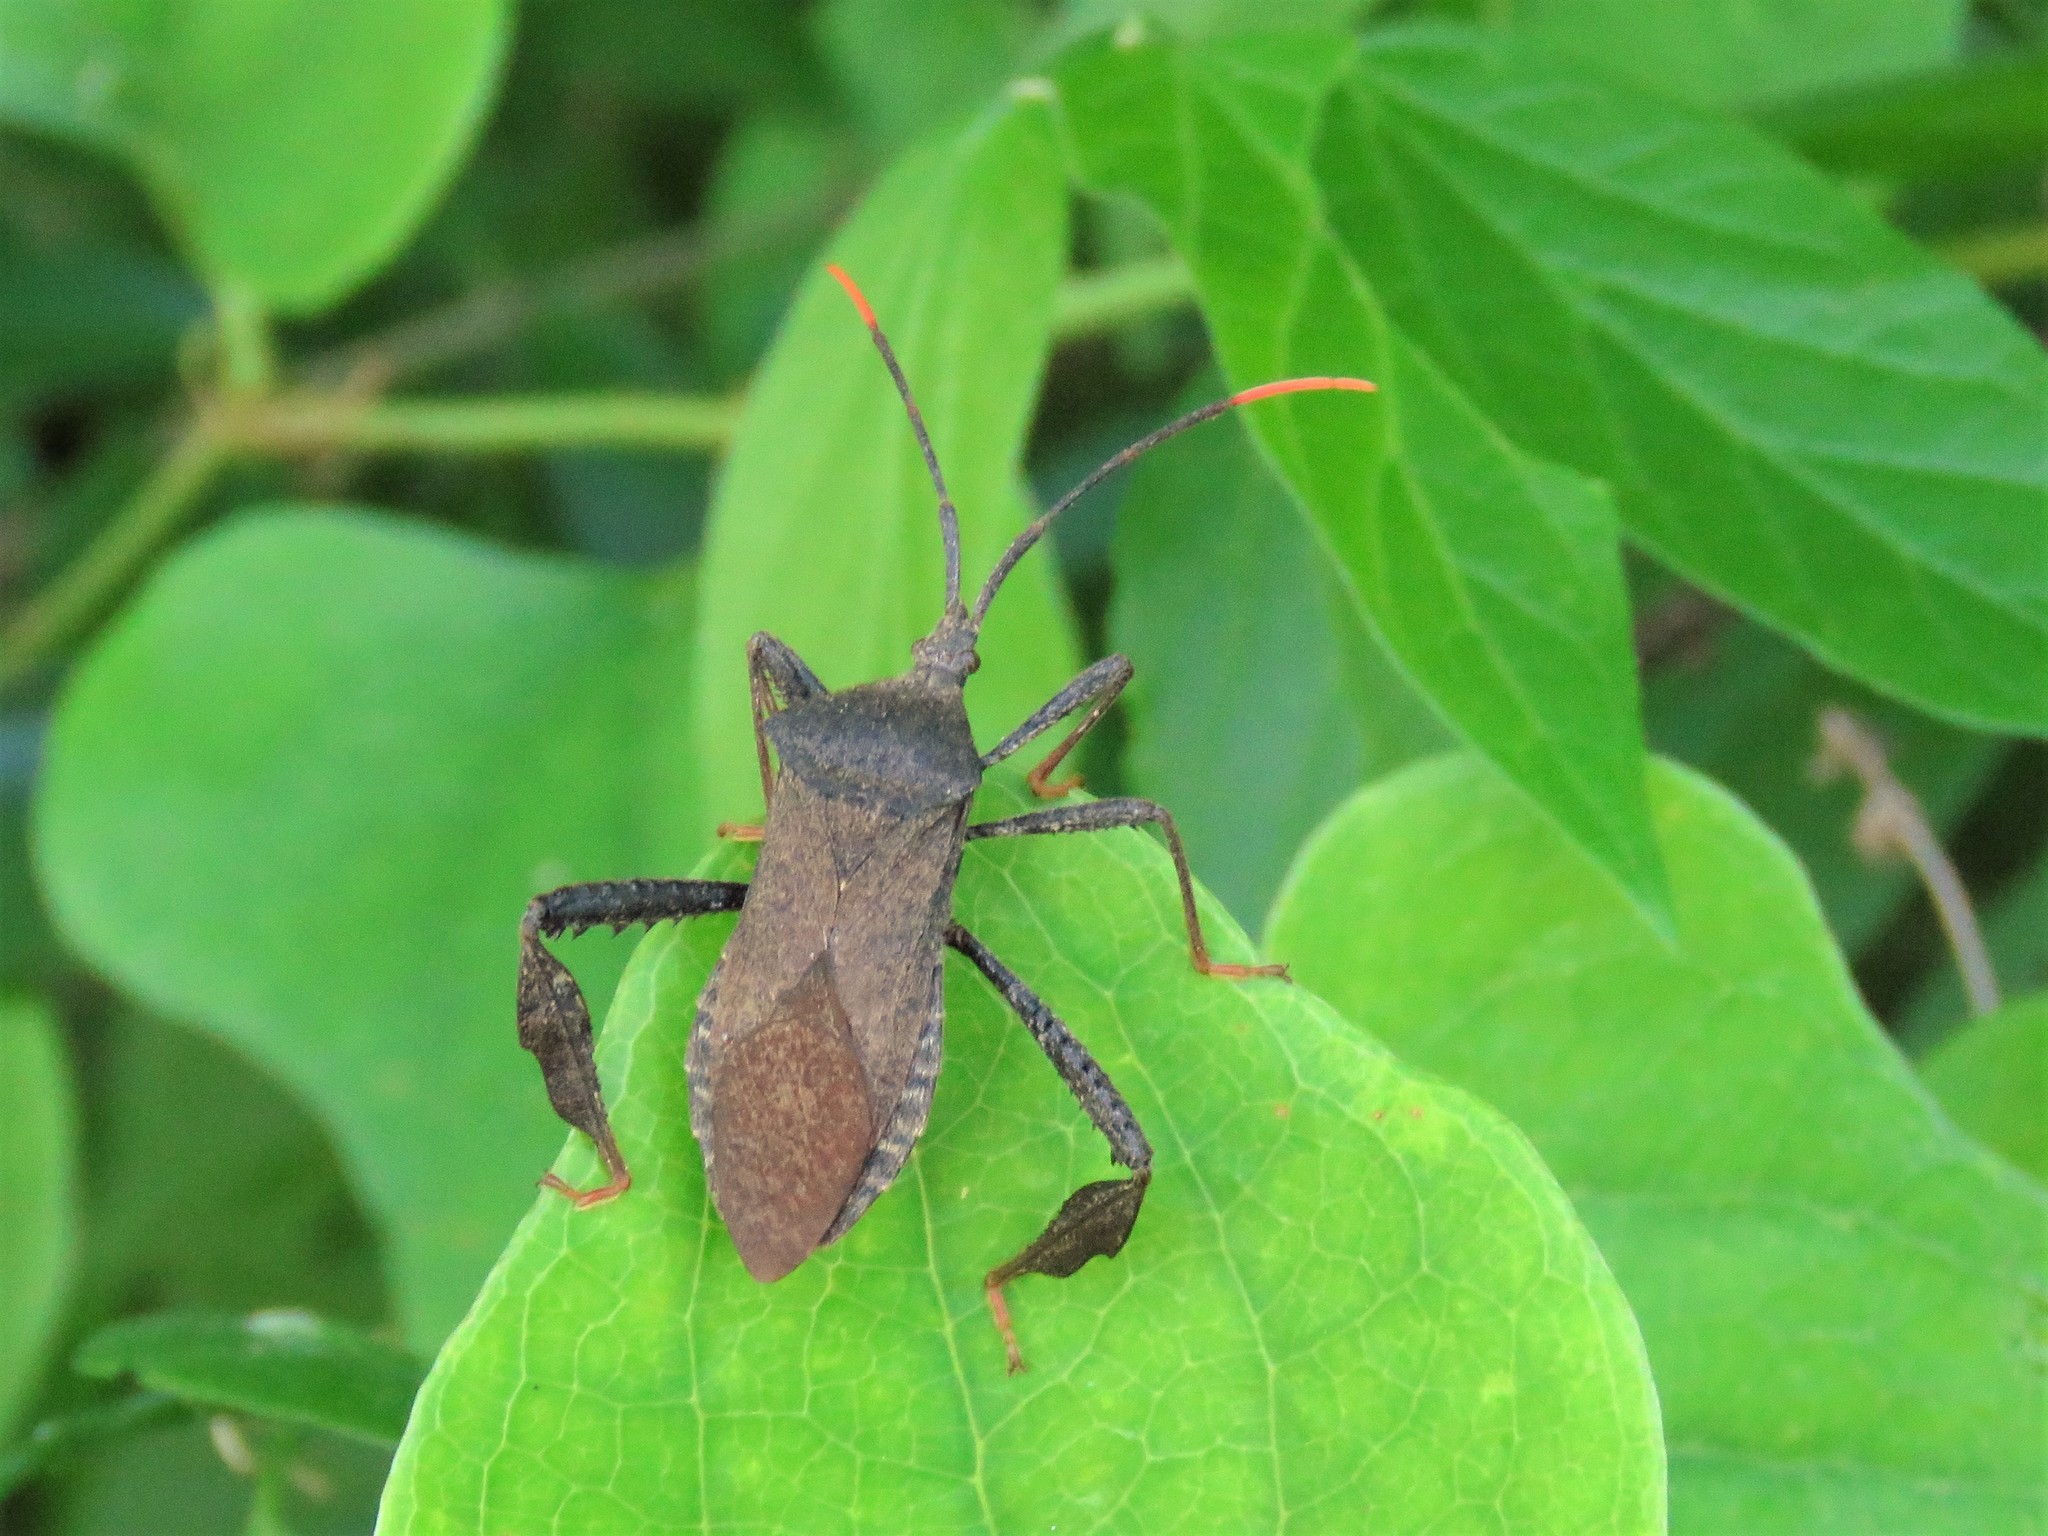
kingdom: Animalia
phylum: Arthropoda
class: Insecta
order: Hemiptera
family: Coreidae
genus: Acanthocephala
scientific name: Acanthocephala terminalis
